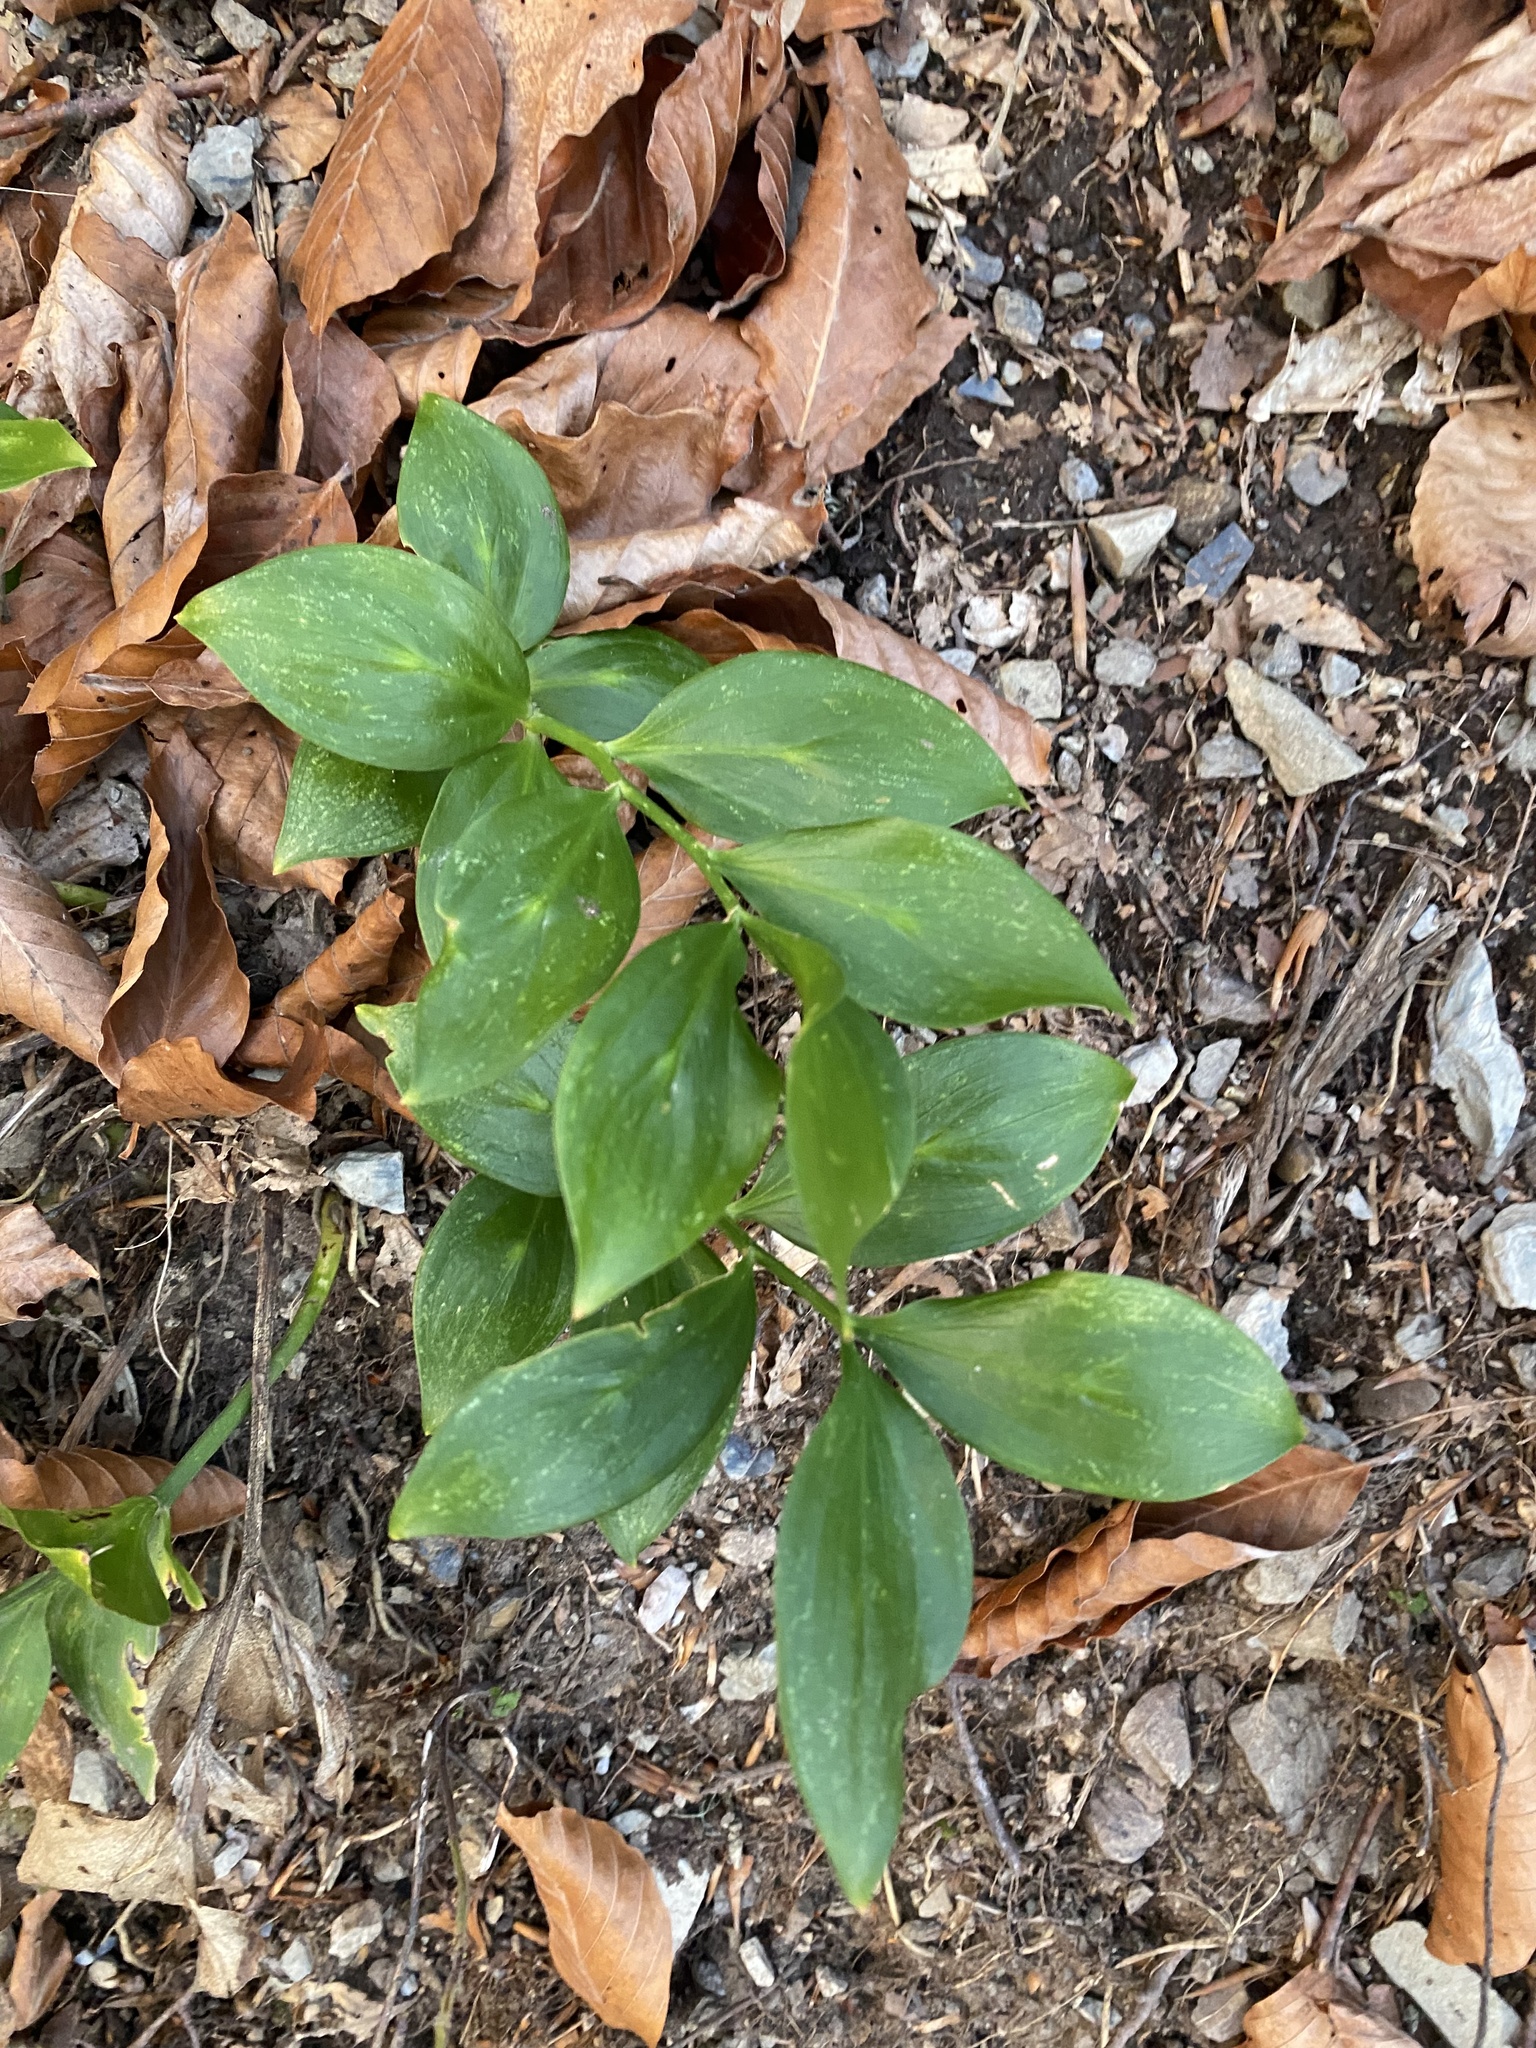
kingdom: Plantae
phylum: Tracheophyta
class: Liliopsida
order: Asparagales
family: Asparagaceae
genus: Ruscus
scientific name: Ruscus colchicus
